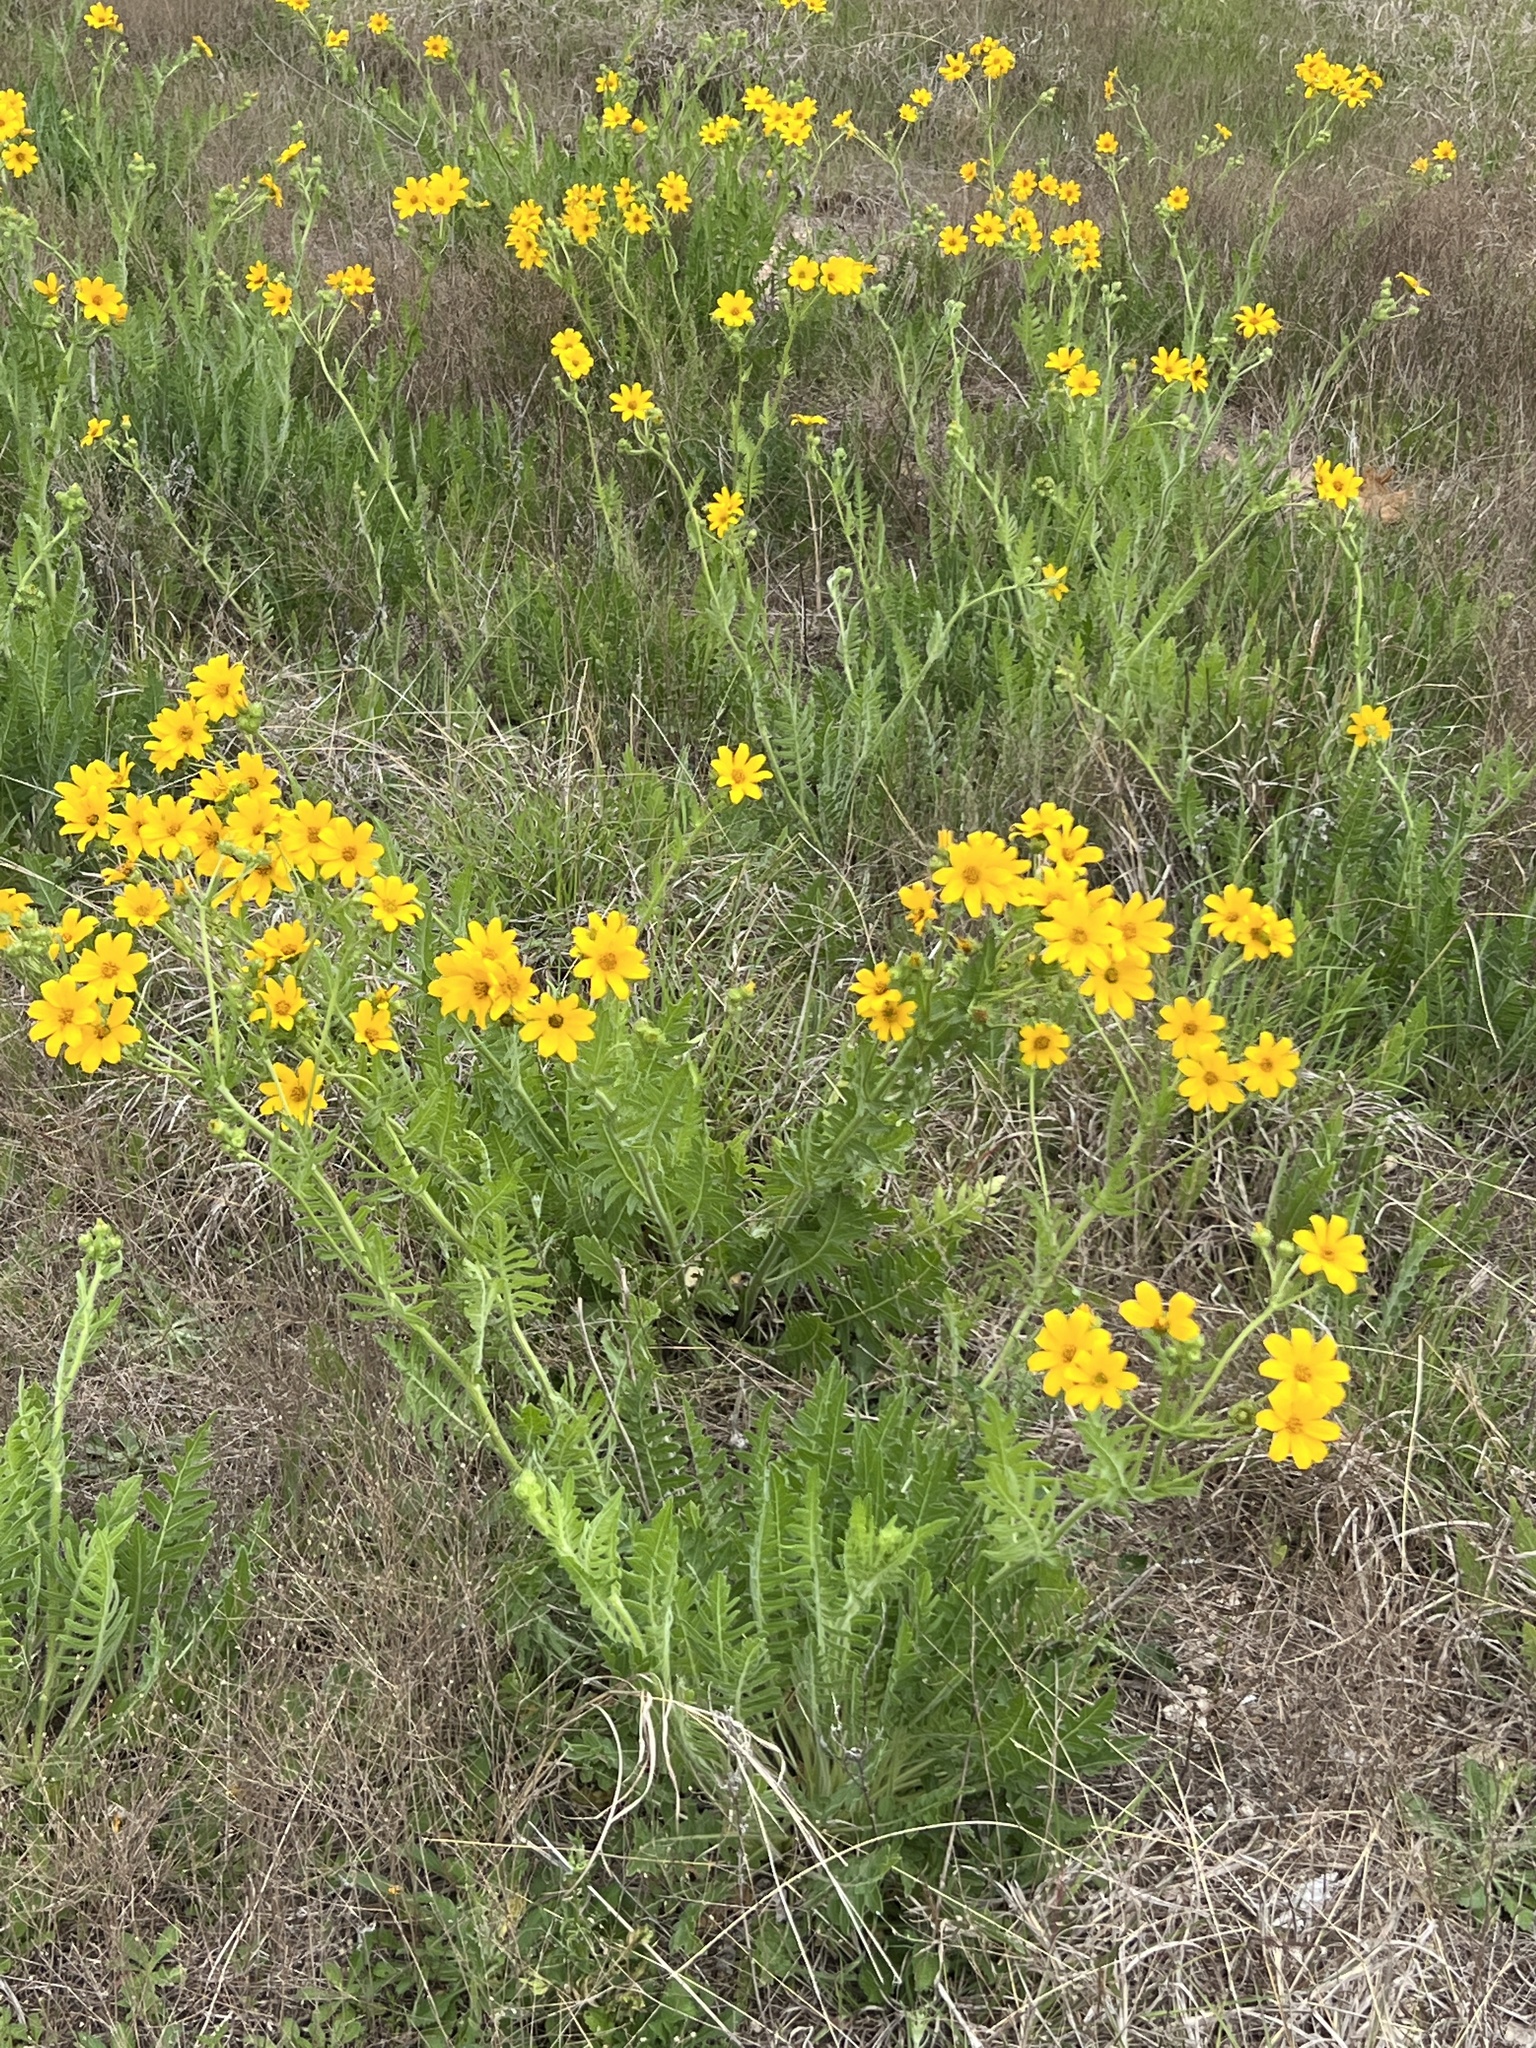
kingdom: Plantae
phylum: Tracheophyta
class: Magnoliopsida
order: Asterales
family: Asteraceae
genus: Engelmannia
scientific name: Engelmannia peristenia
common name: Engelmann's daisy
